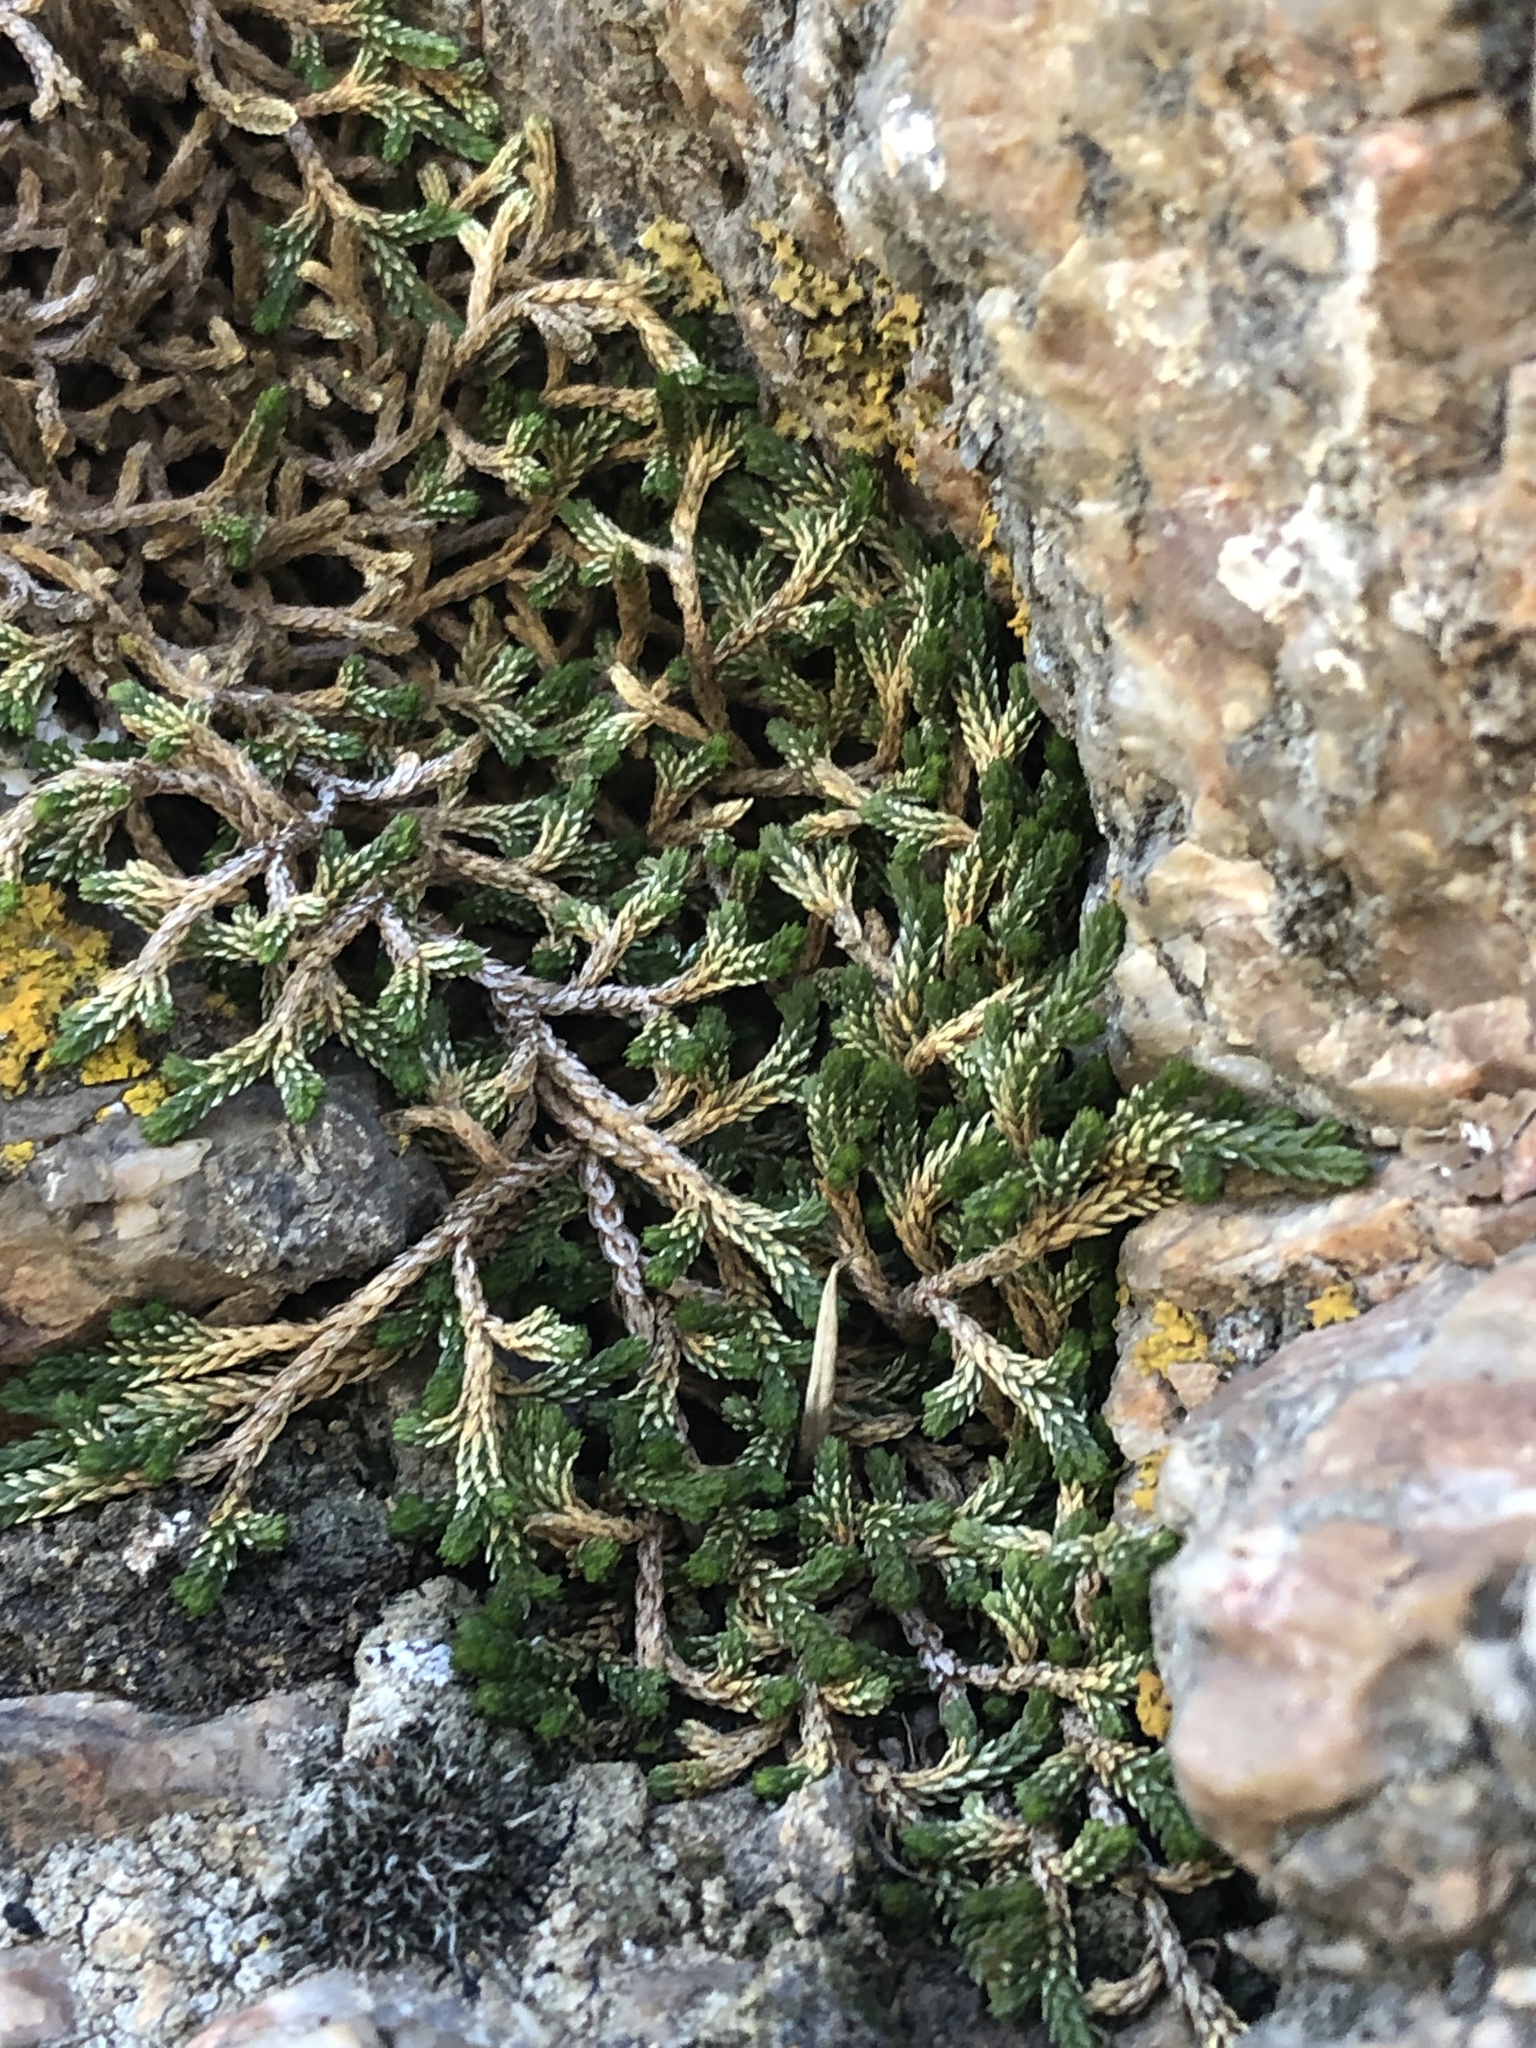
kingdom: Plantae
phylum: Tracheophyta
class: Lycopodiopsida
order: Selaginellales
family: Selaginellaceae
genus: Selaginella
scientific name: Selaginella mutica
